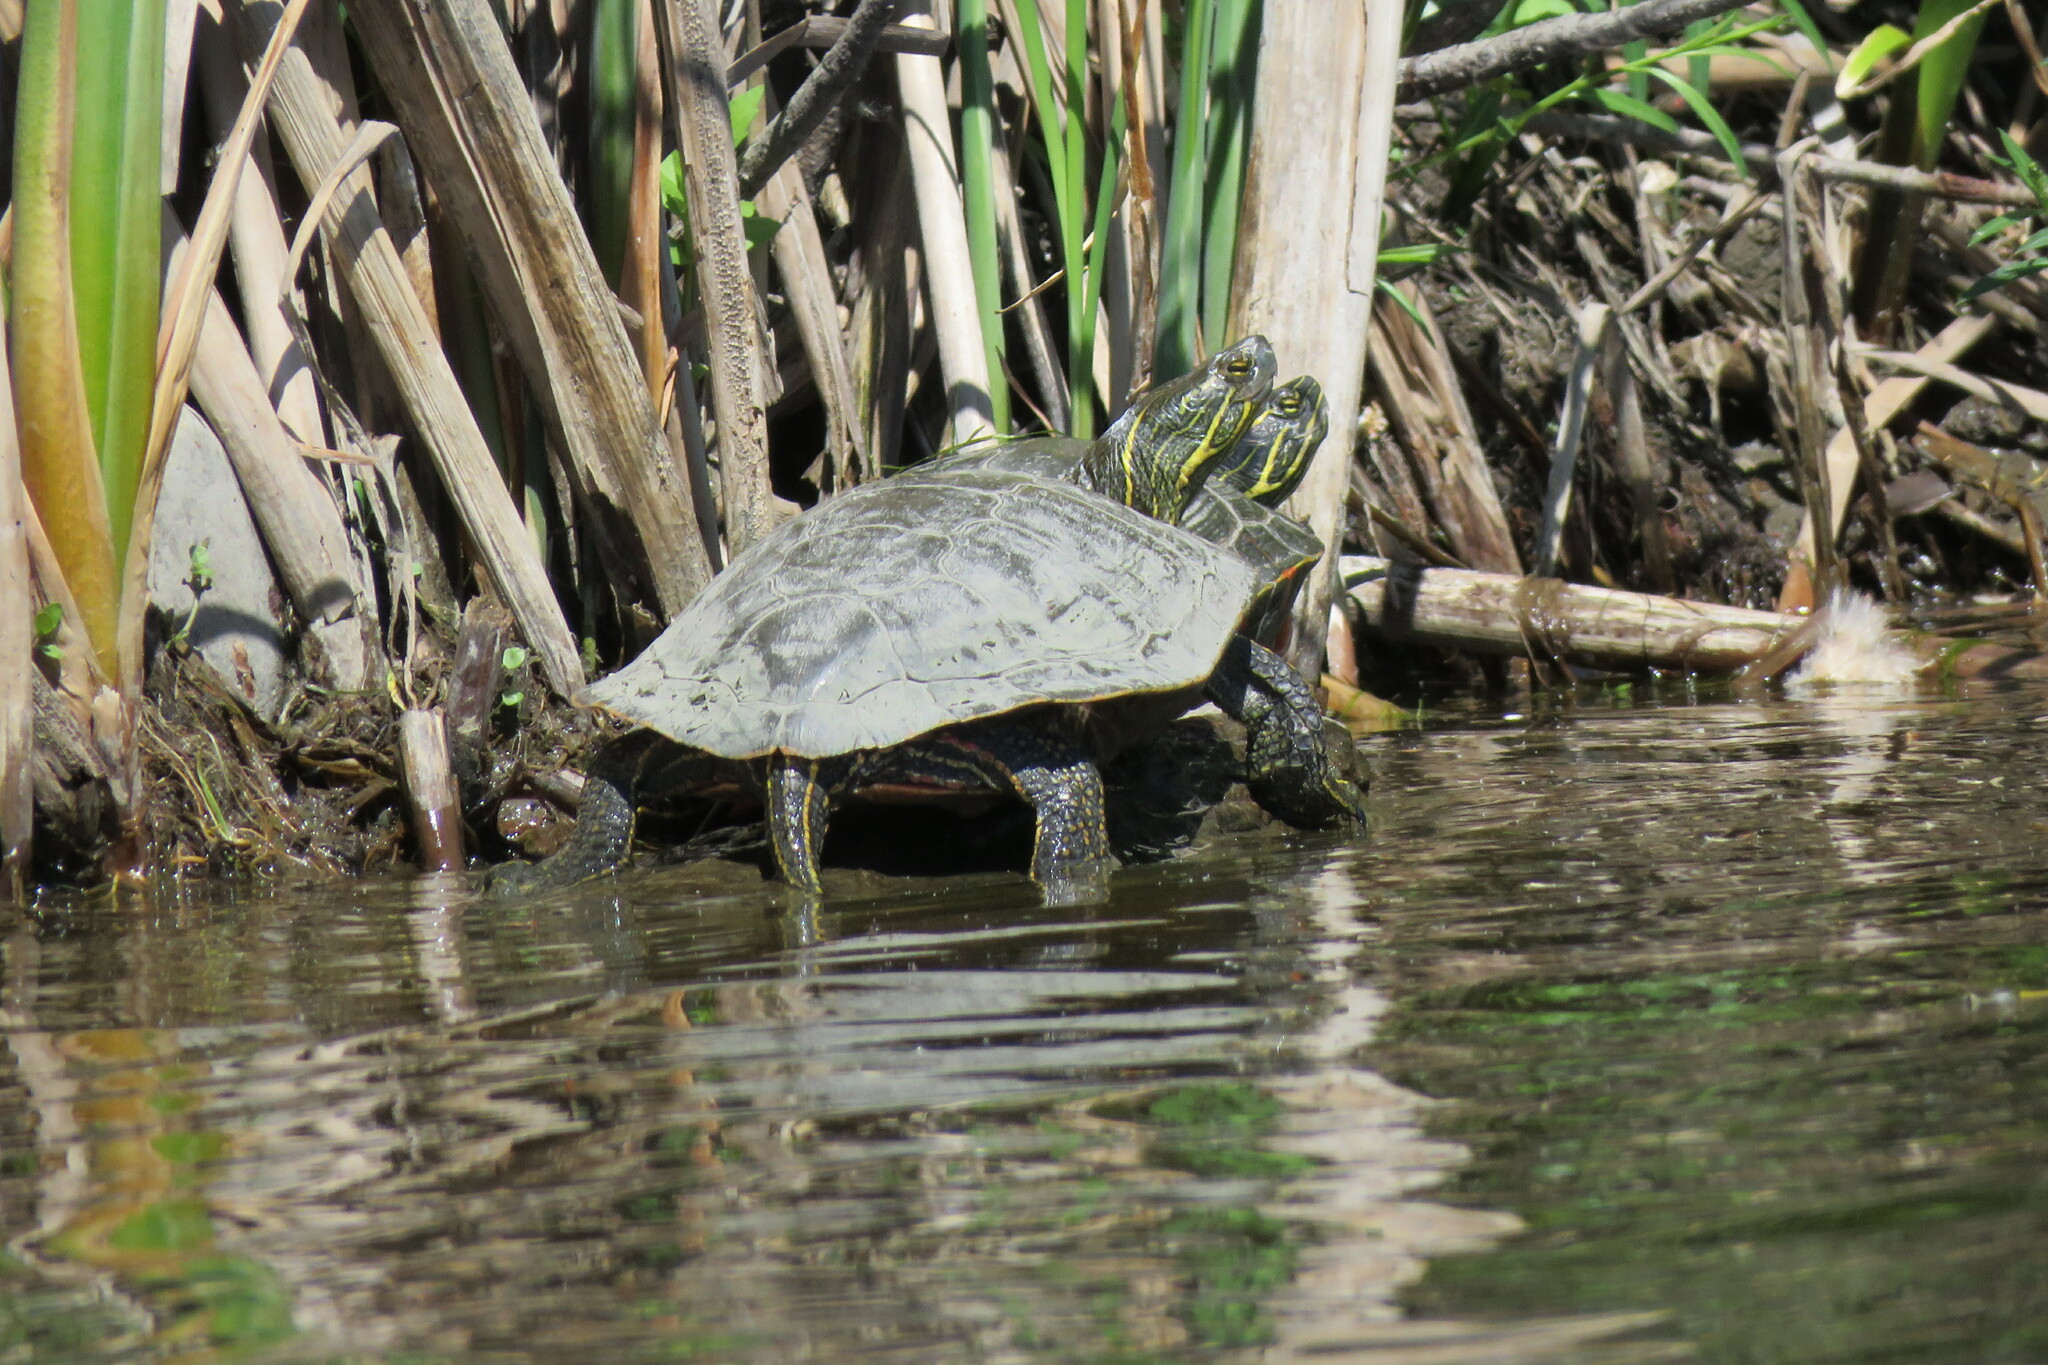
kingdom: Animalia
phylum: Chordata
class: Testudines
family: Emydidae
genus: Chrysemys
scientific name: Chrysemys picta
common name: Painted turtle
